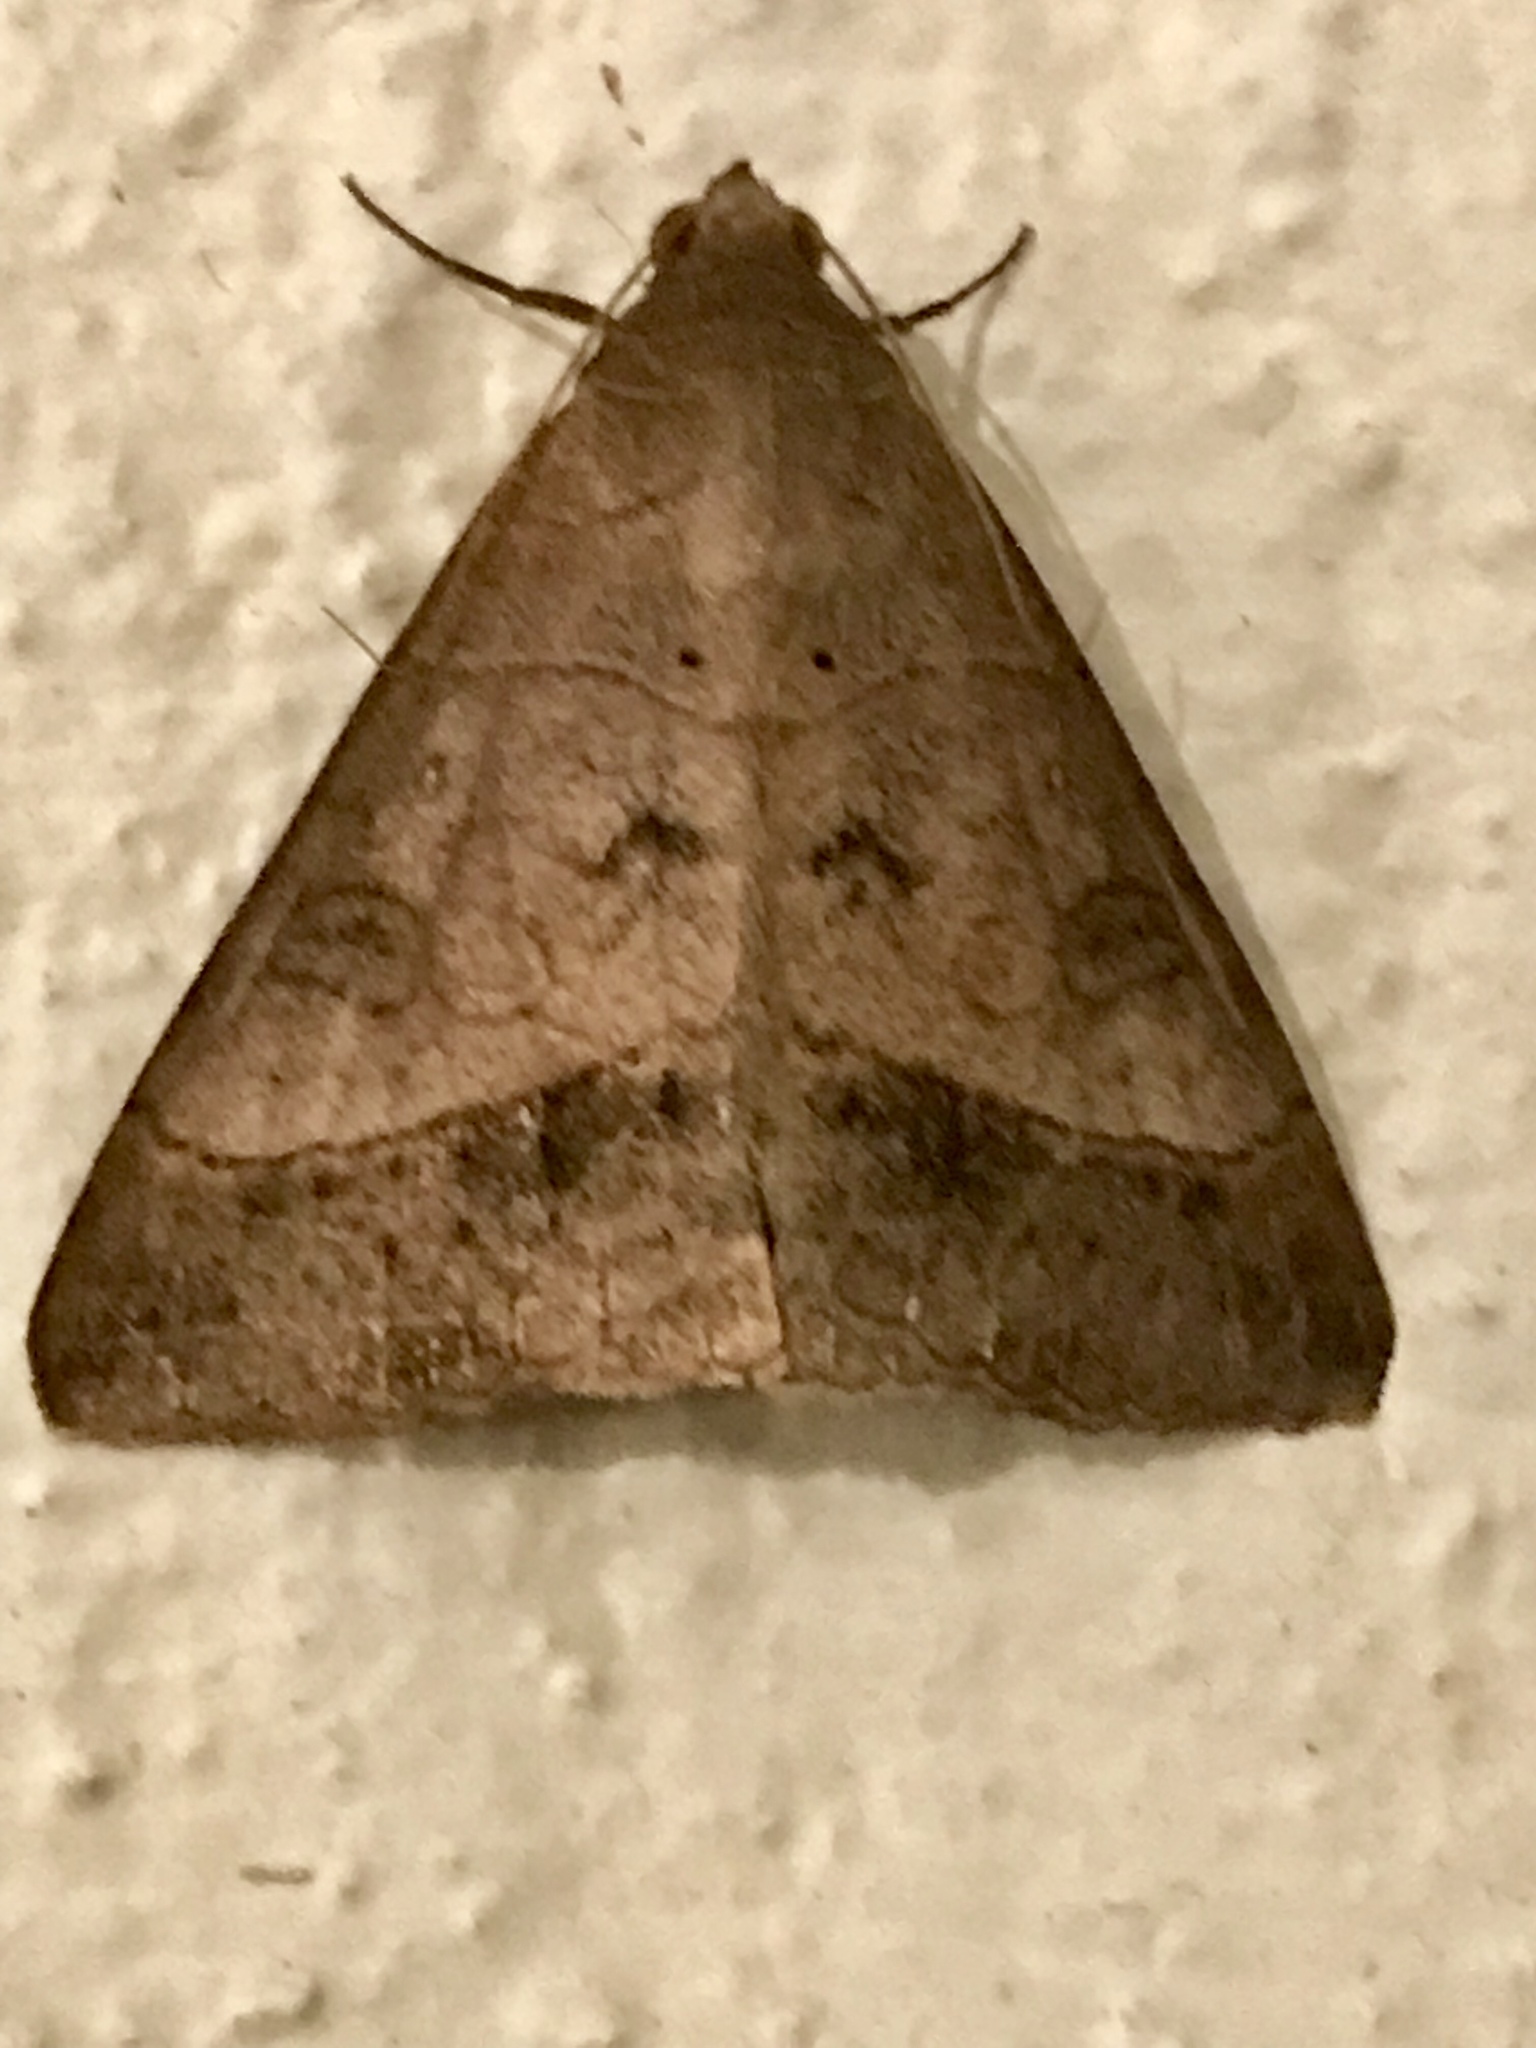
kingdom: Animalia
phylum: Arthropoda
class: Insecta
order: Lepidoptera
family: Erebidae
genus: Mocis
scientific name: Mocis latipes
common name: Striped grass looper
